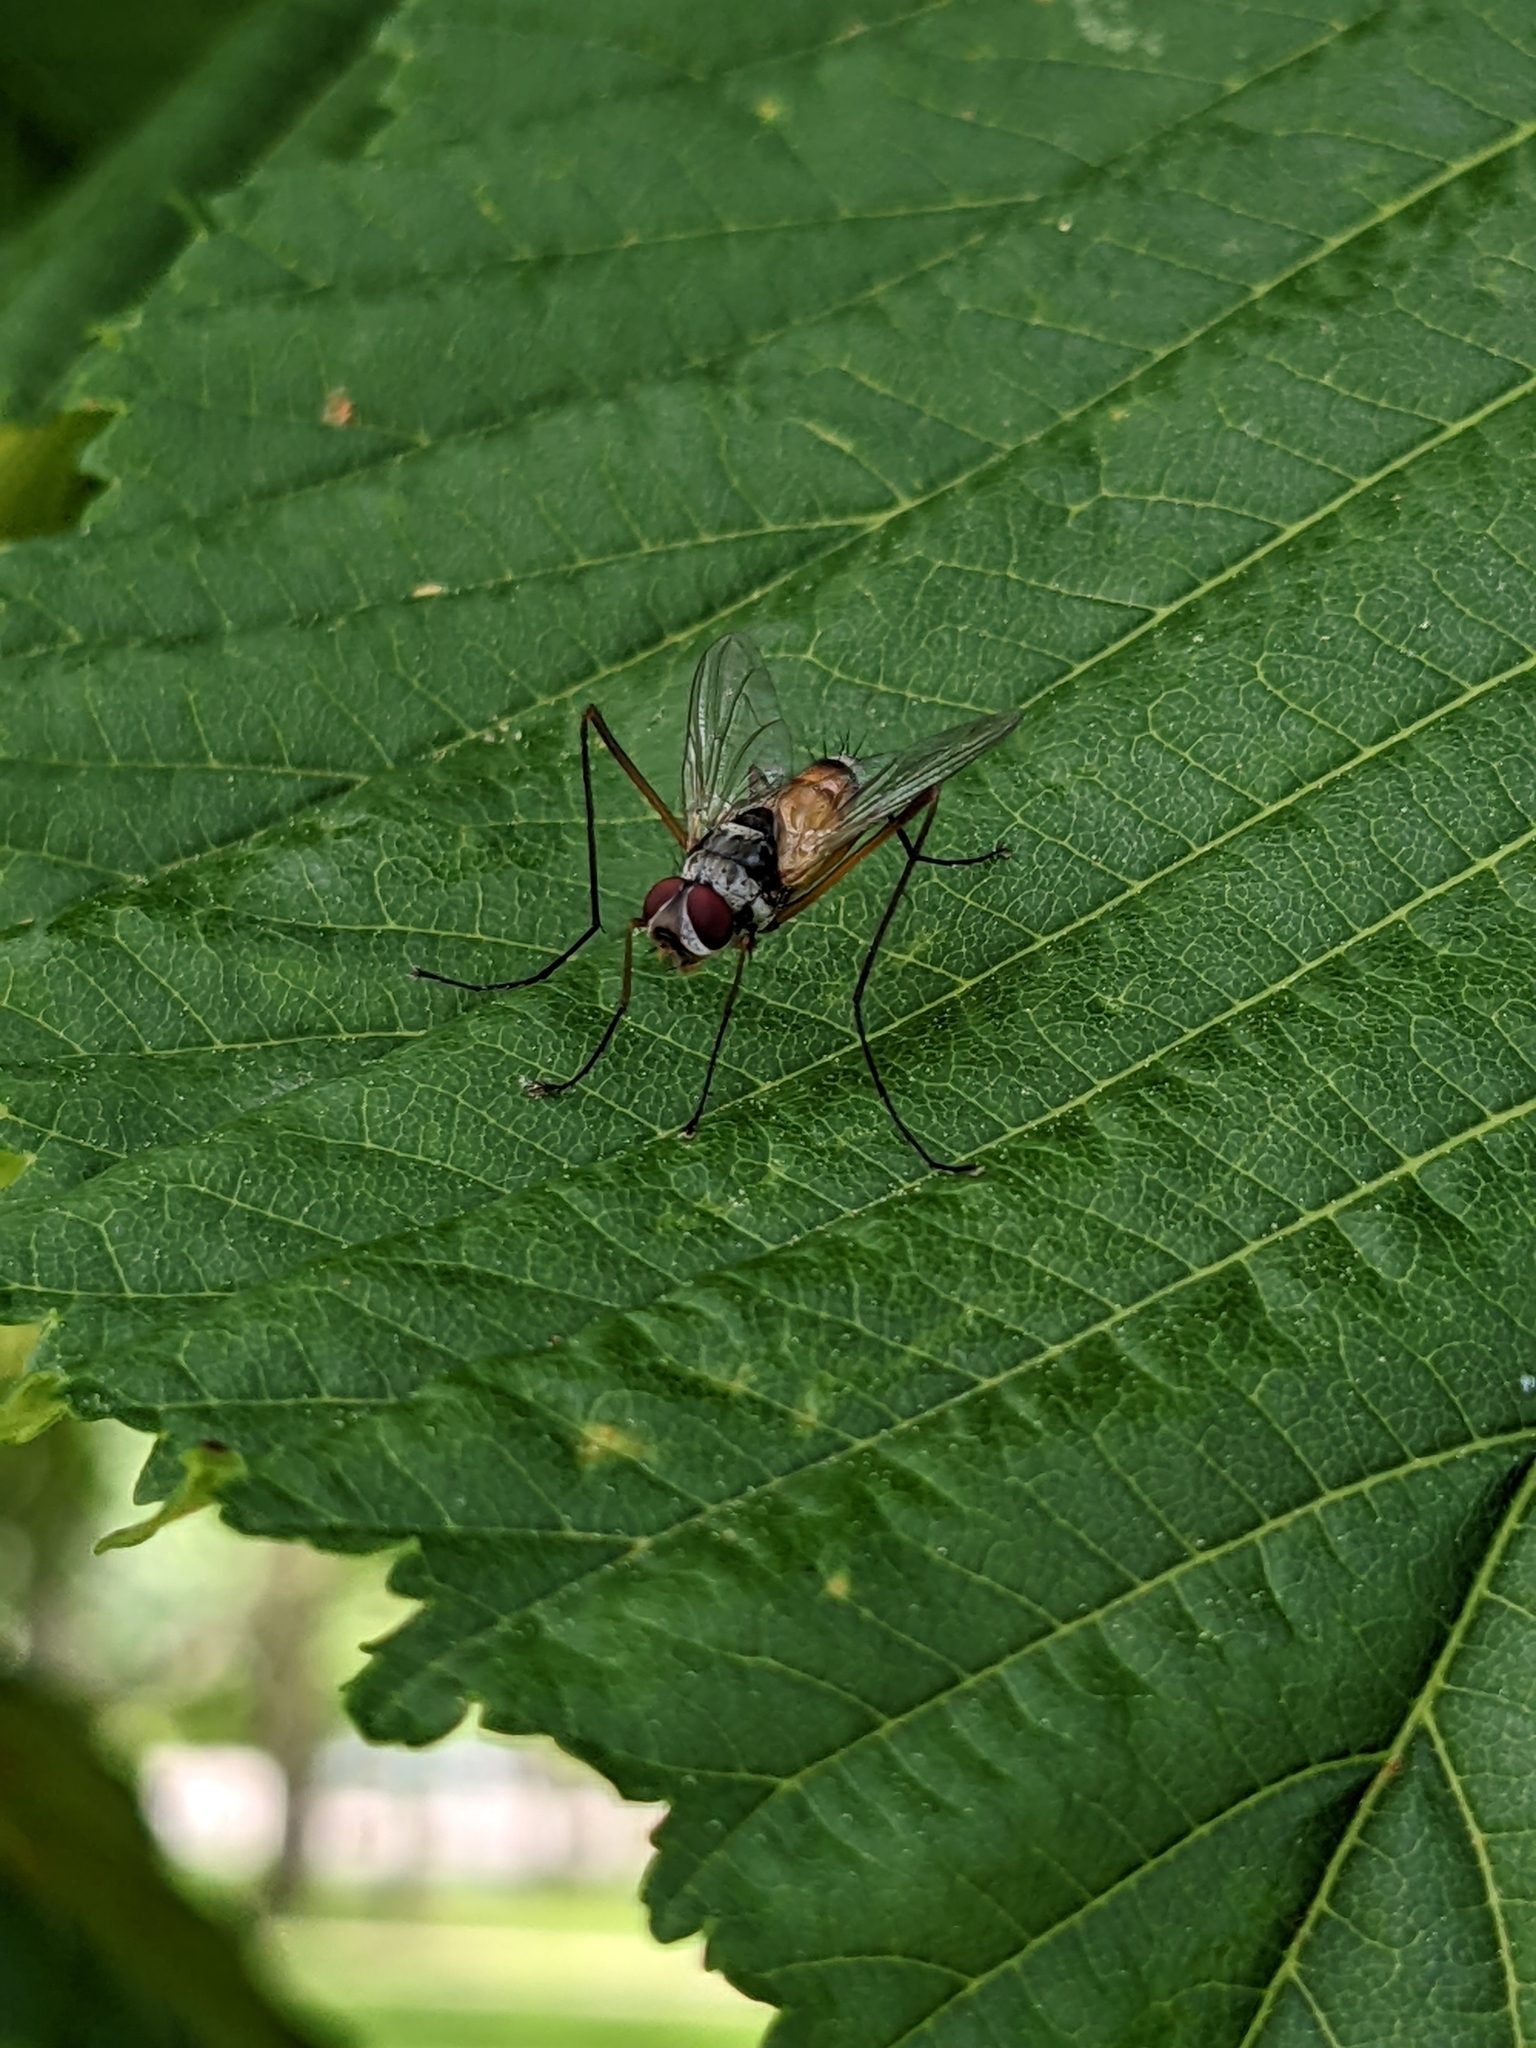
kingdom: Animalia
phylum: Arthropoda
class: Insecta
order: Diptera
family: Tachinidae
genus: Cholomyia
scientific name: Cholomyia inaequipes
